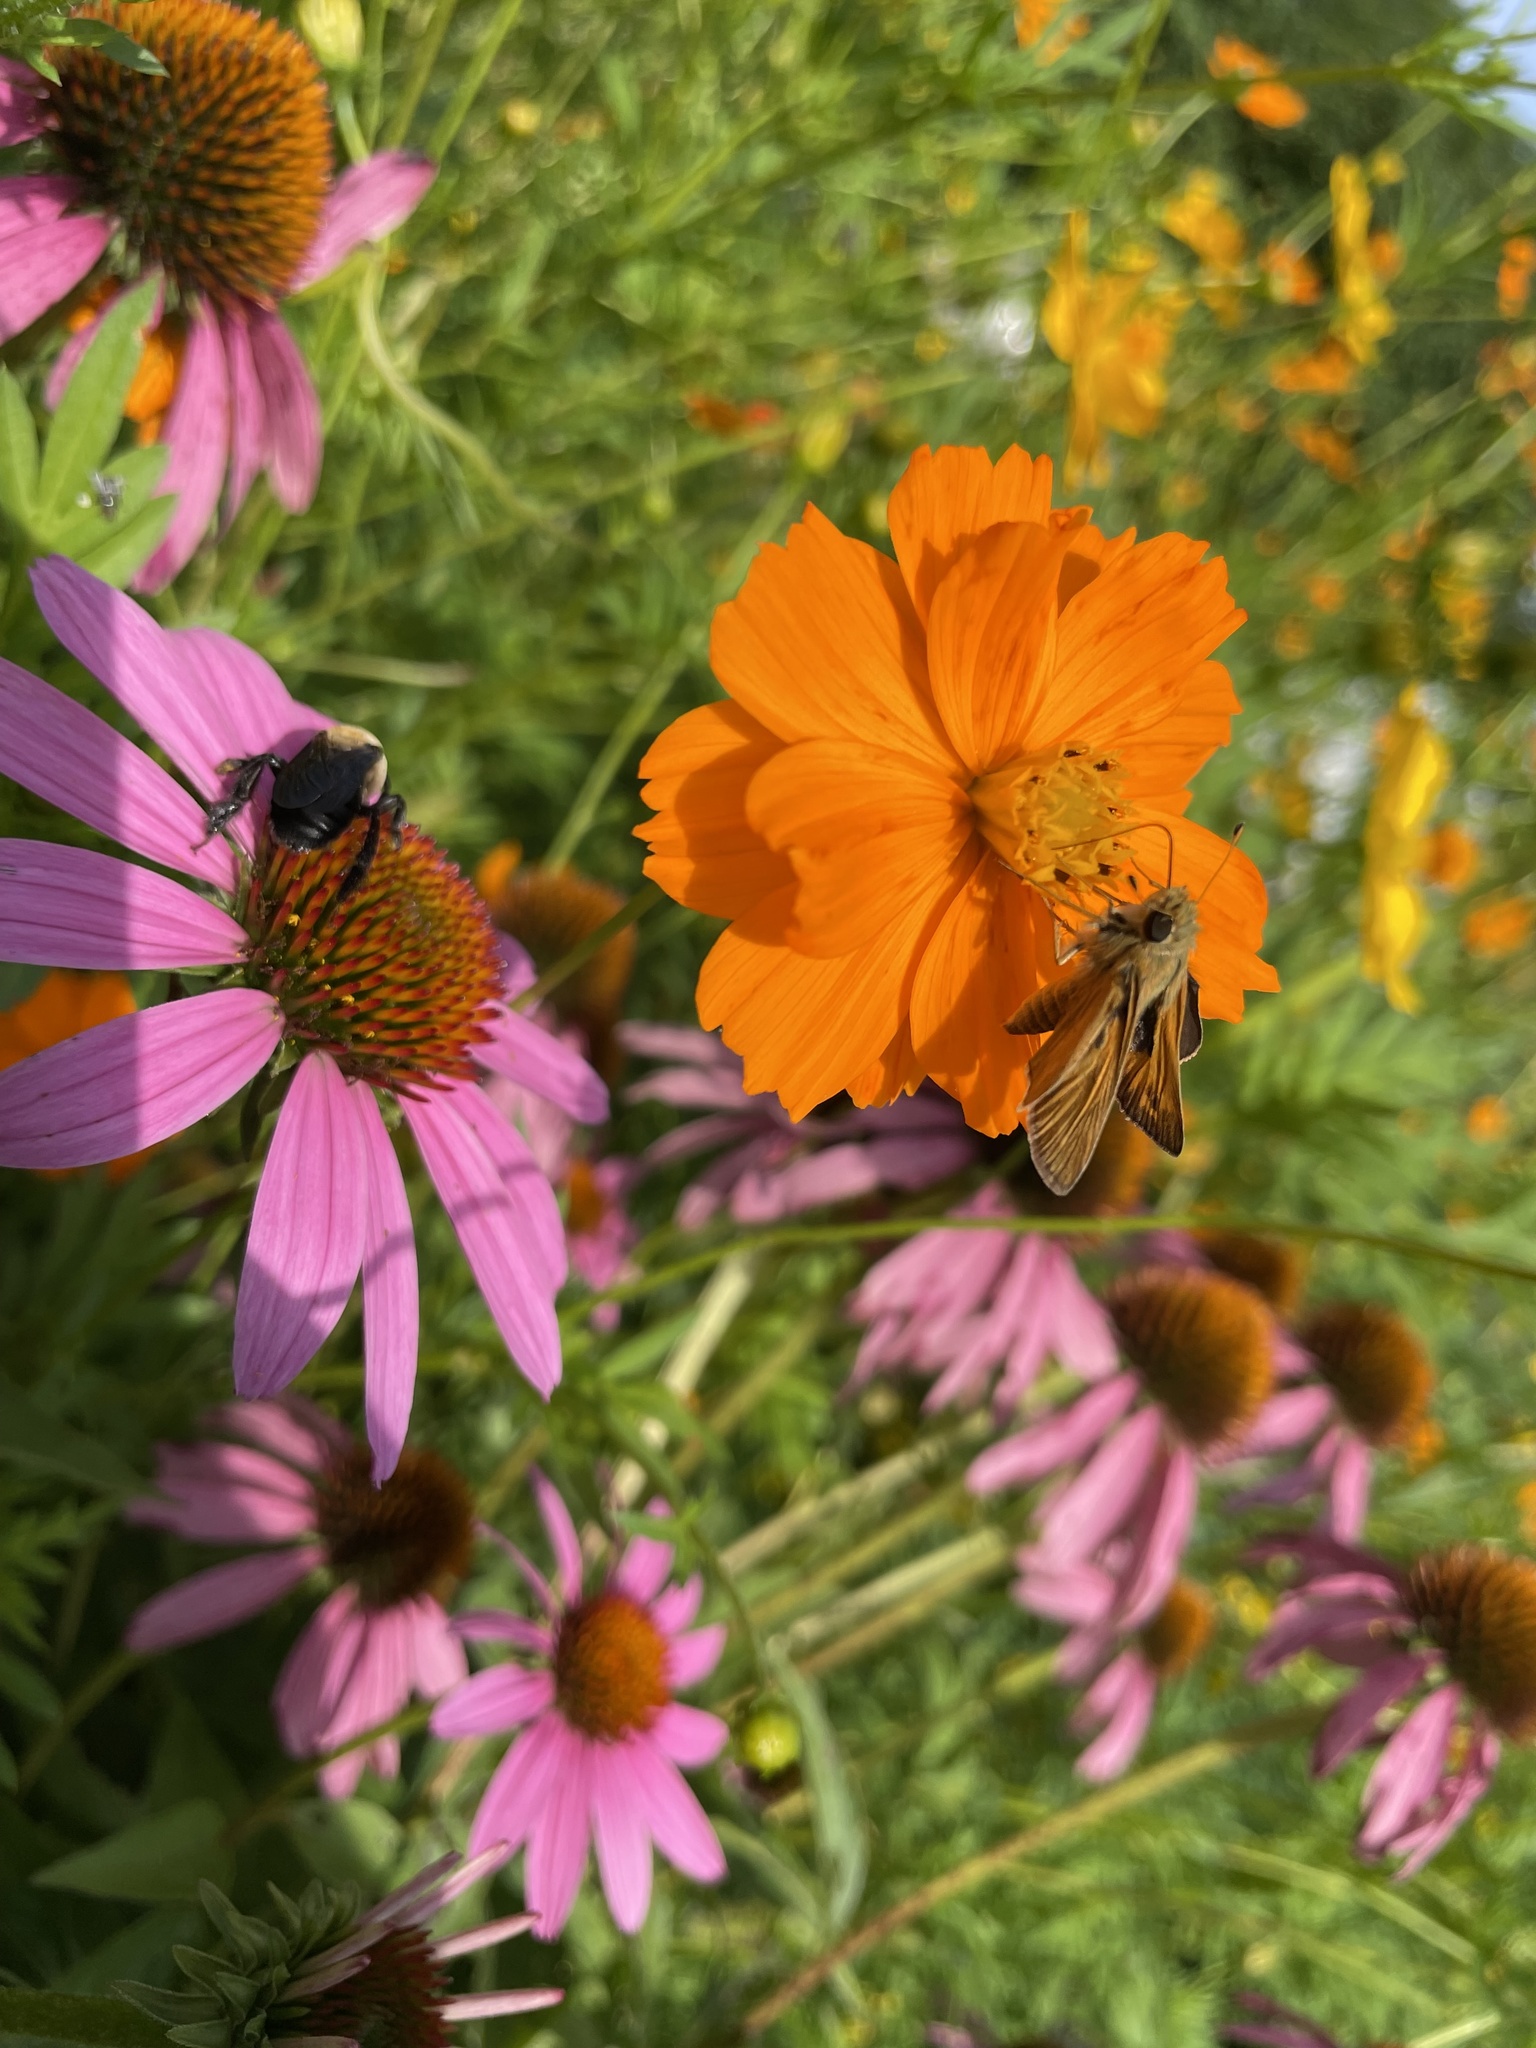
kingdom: Animalia
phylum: Arthropoda
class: Insecta
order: Lepidoptera
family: Hesperiidae
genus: Atalopedes
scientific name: Atalopedes
